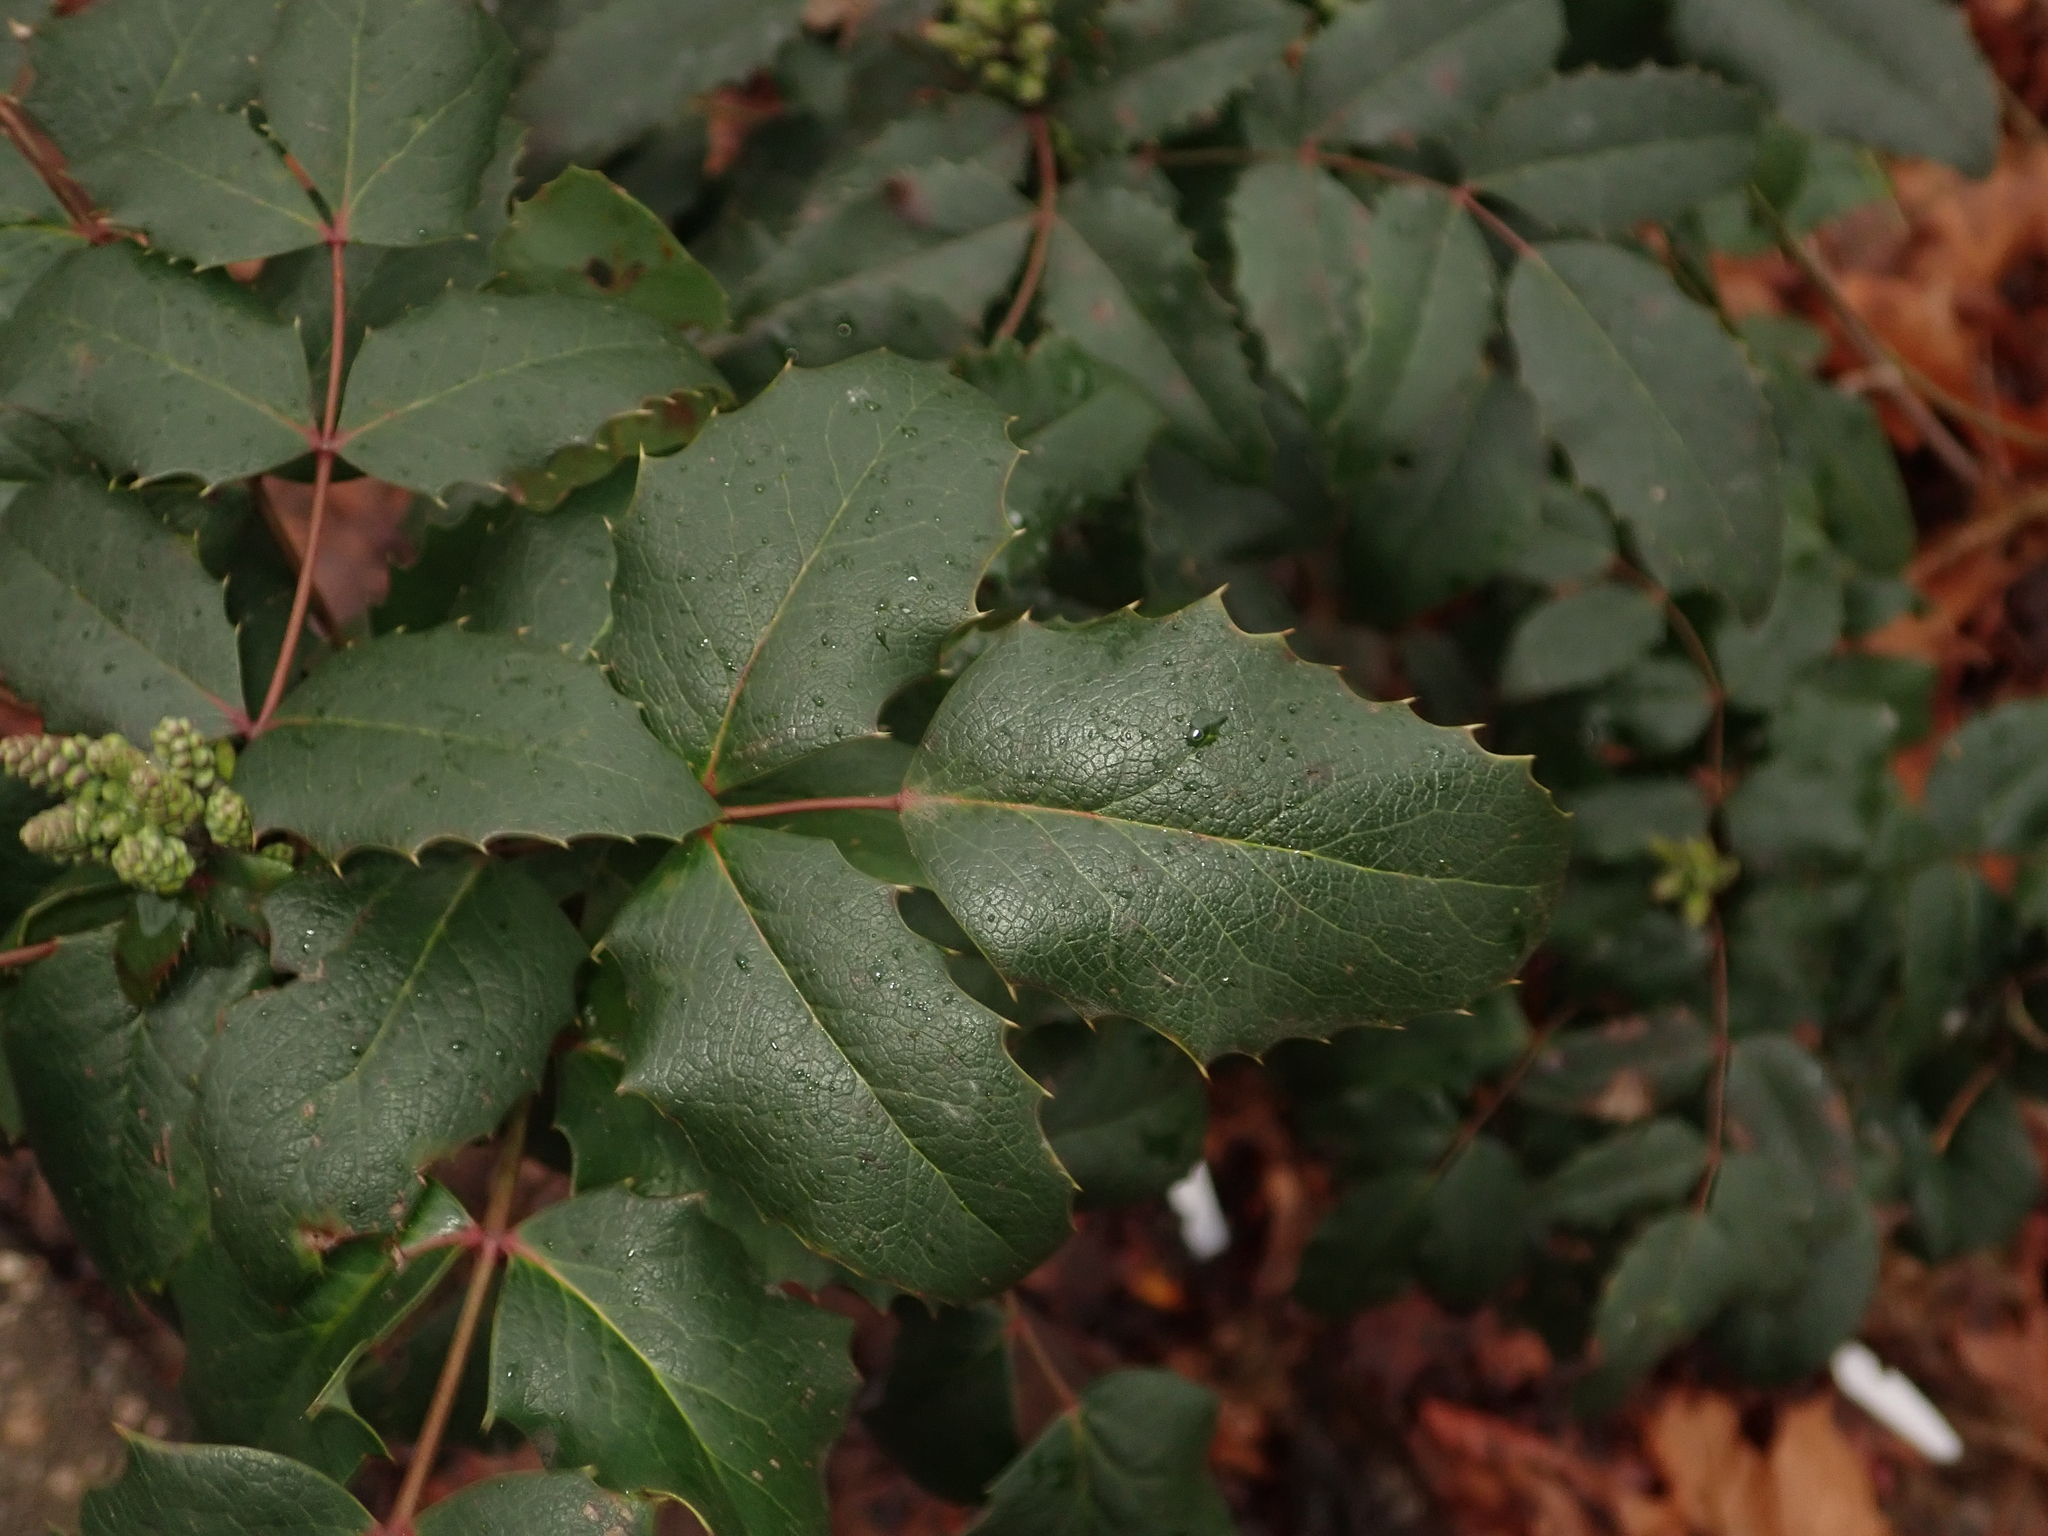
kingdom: Plantae
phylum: Tracheophyta
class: Magnoliopsida
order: Ranunculales
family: Berberidaceae
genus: Mahonia
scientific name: Mahonia aquifolium
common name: Oregon-grape
